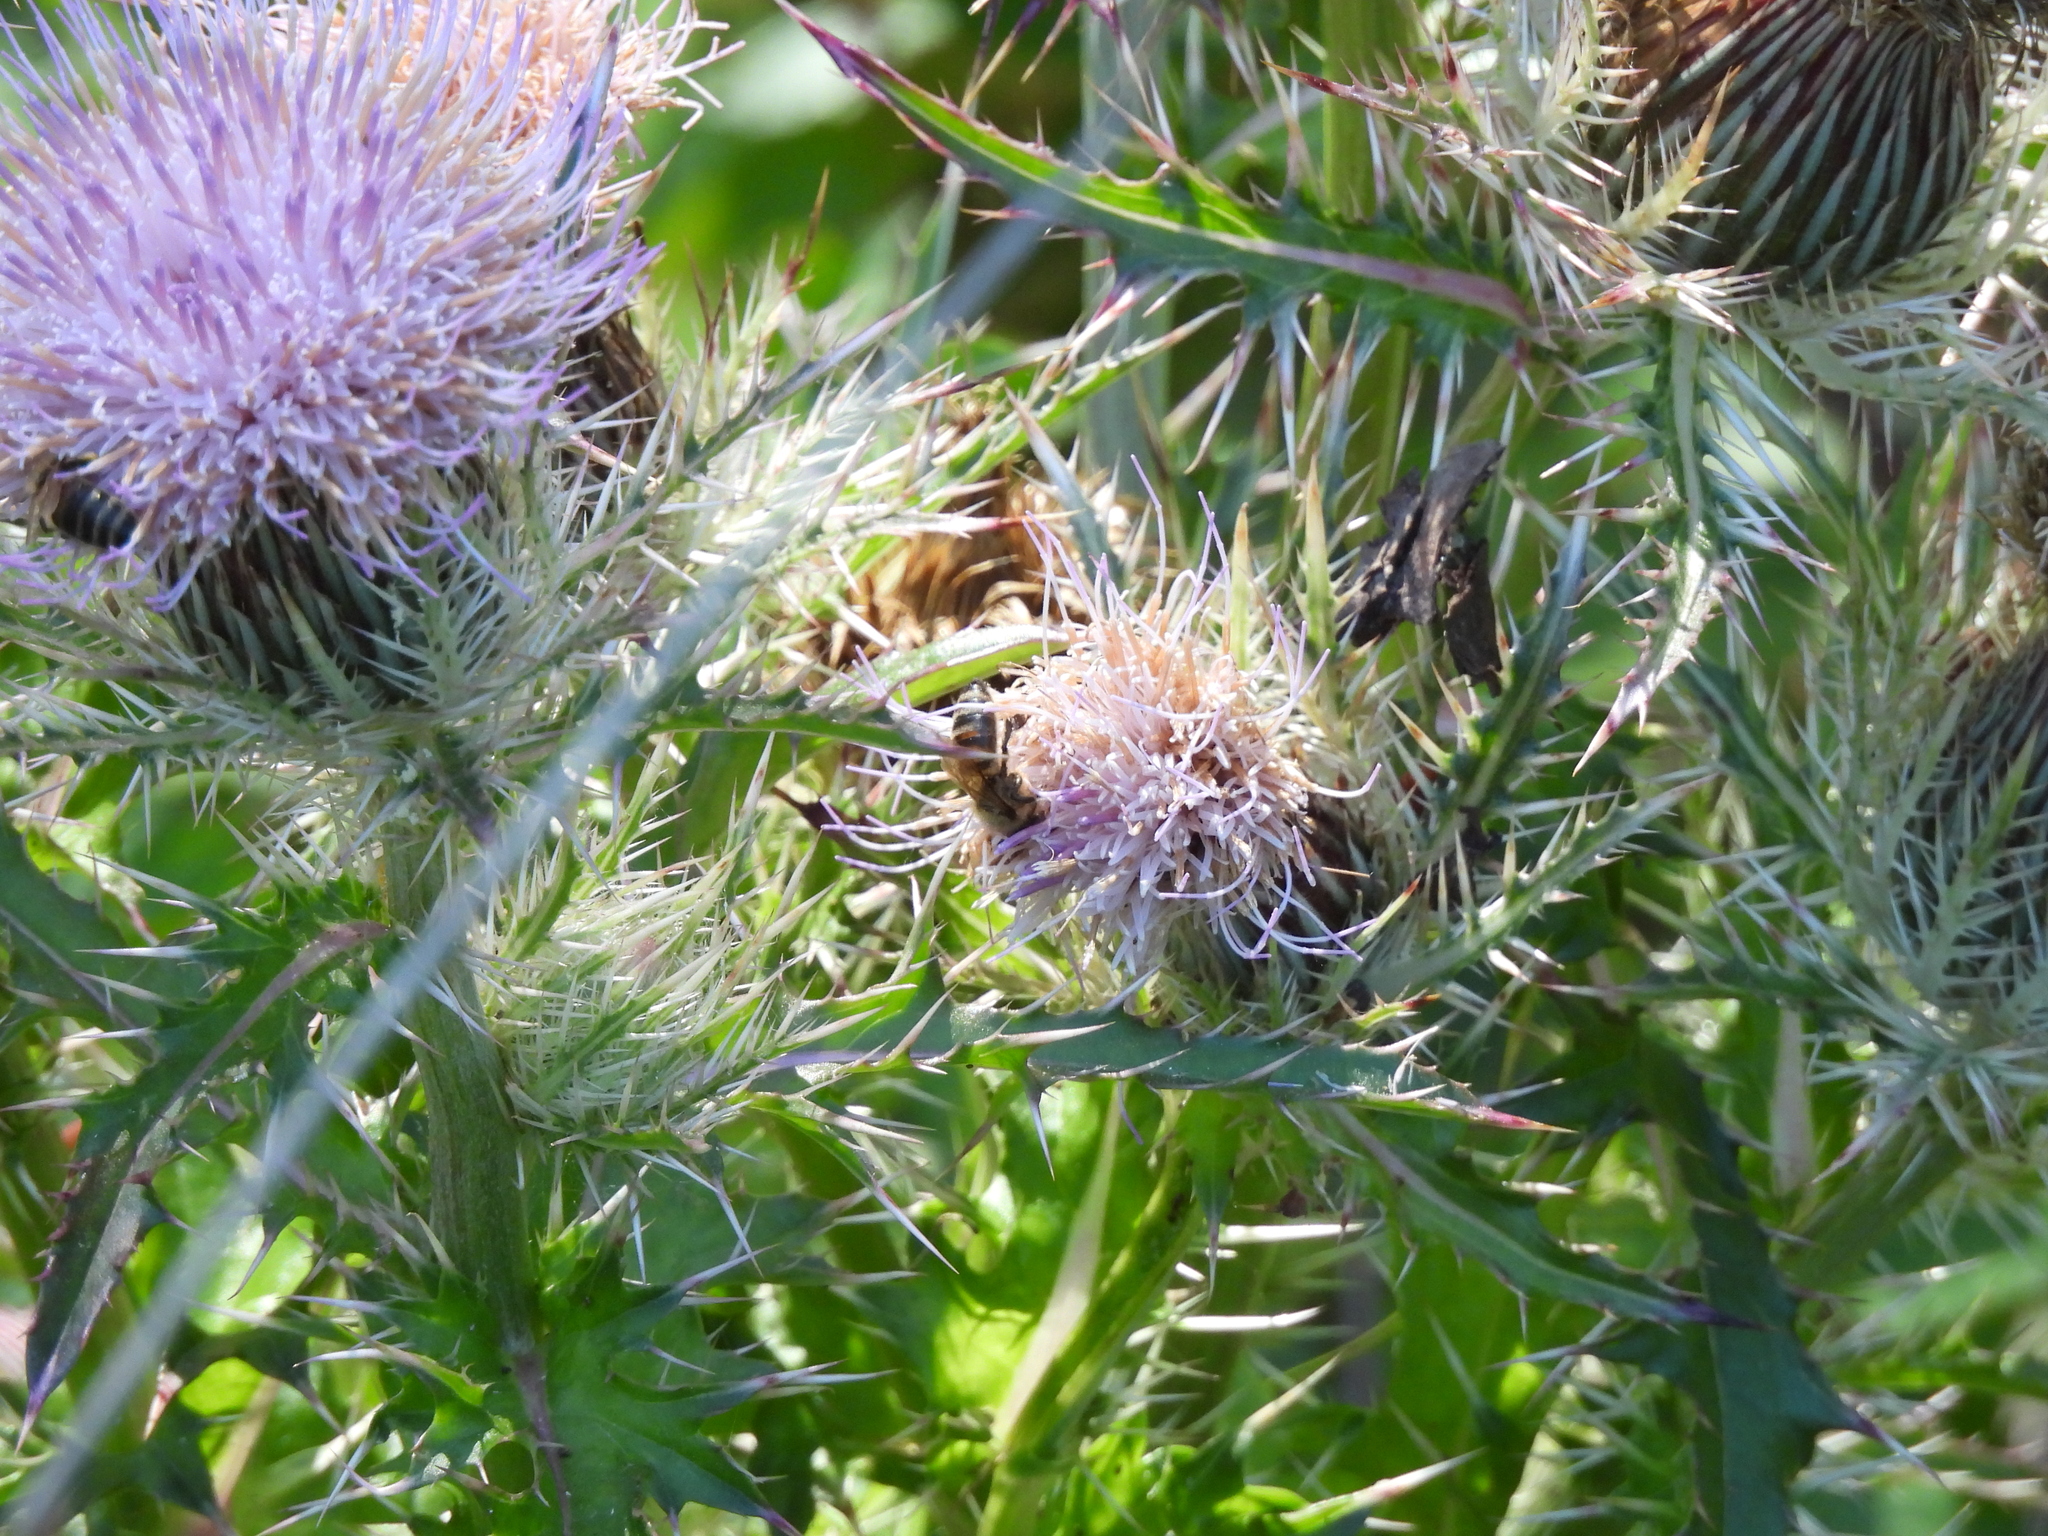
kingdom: Animalia
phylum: Arthropoda
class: Insecta
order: Hymenoptera
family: Apidae
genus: Apis
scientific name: Apis mellifera
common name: Honey bee
